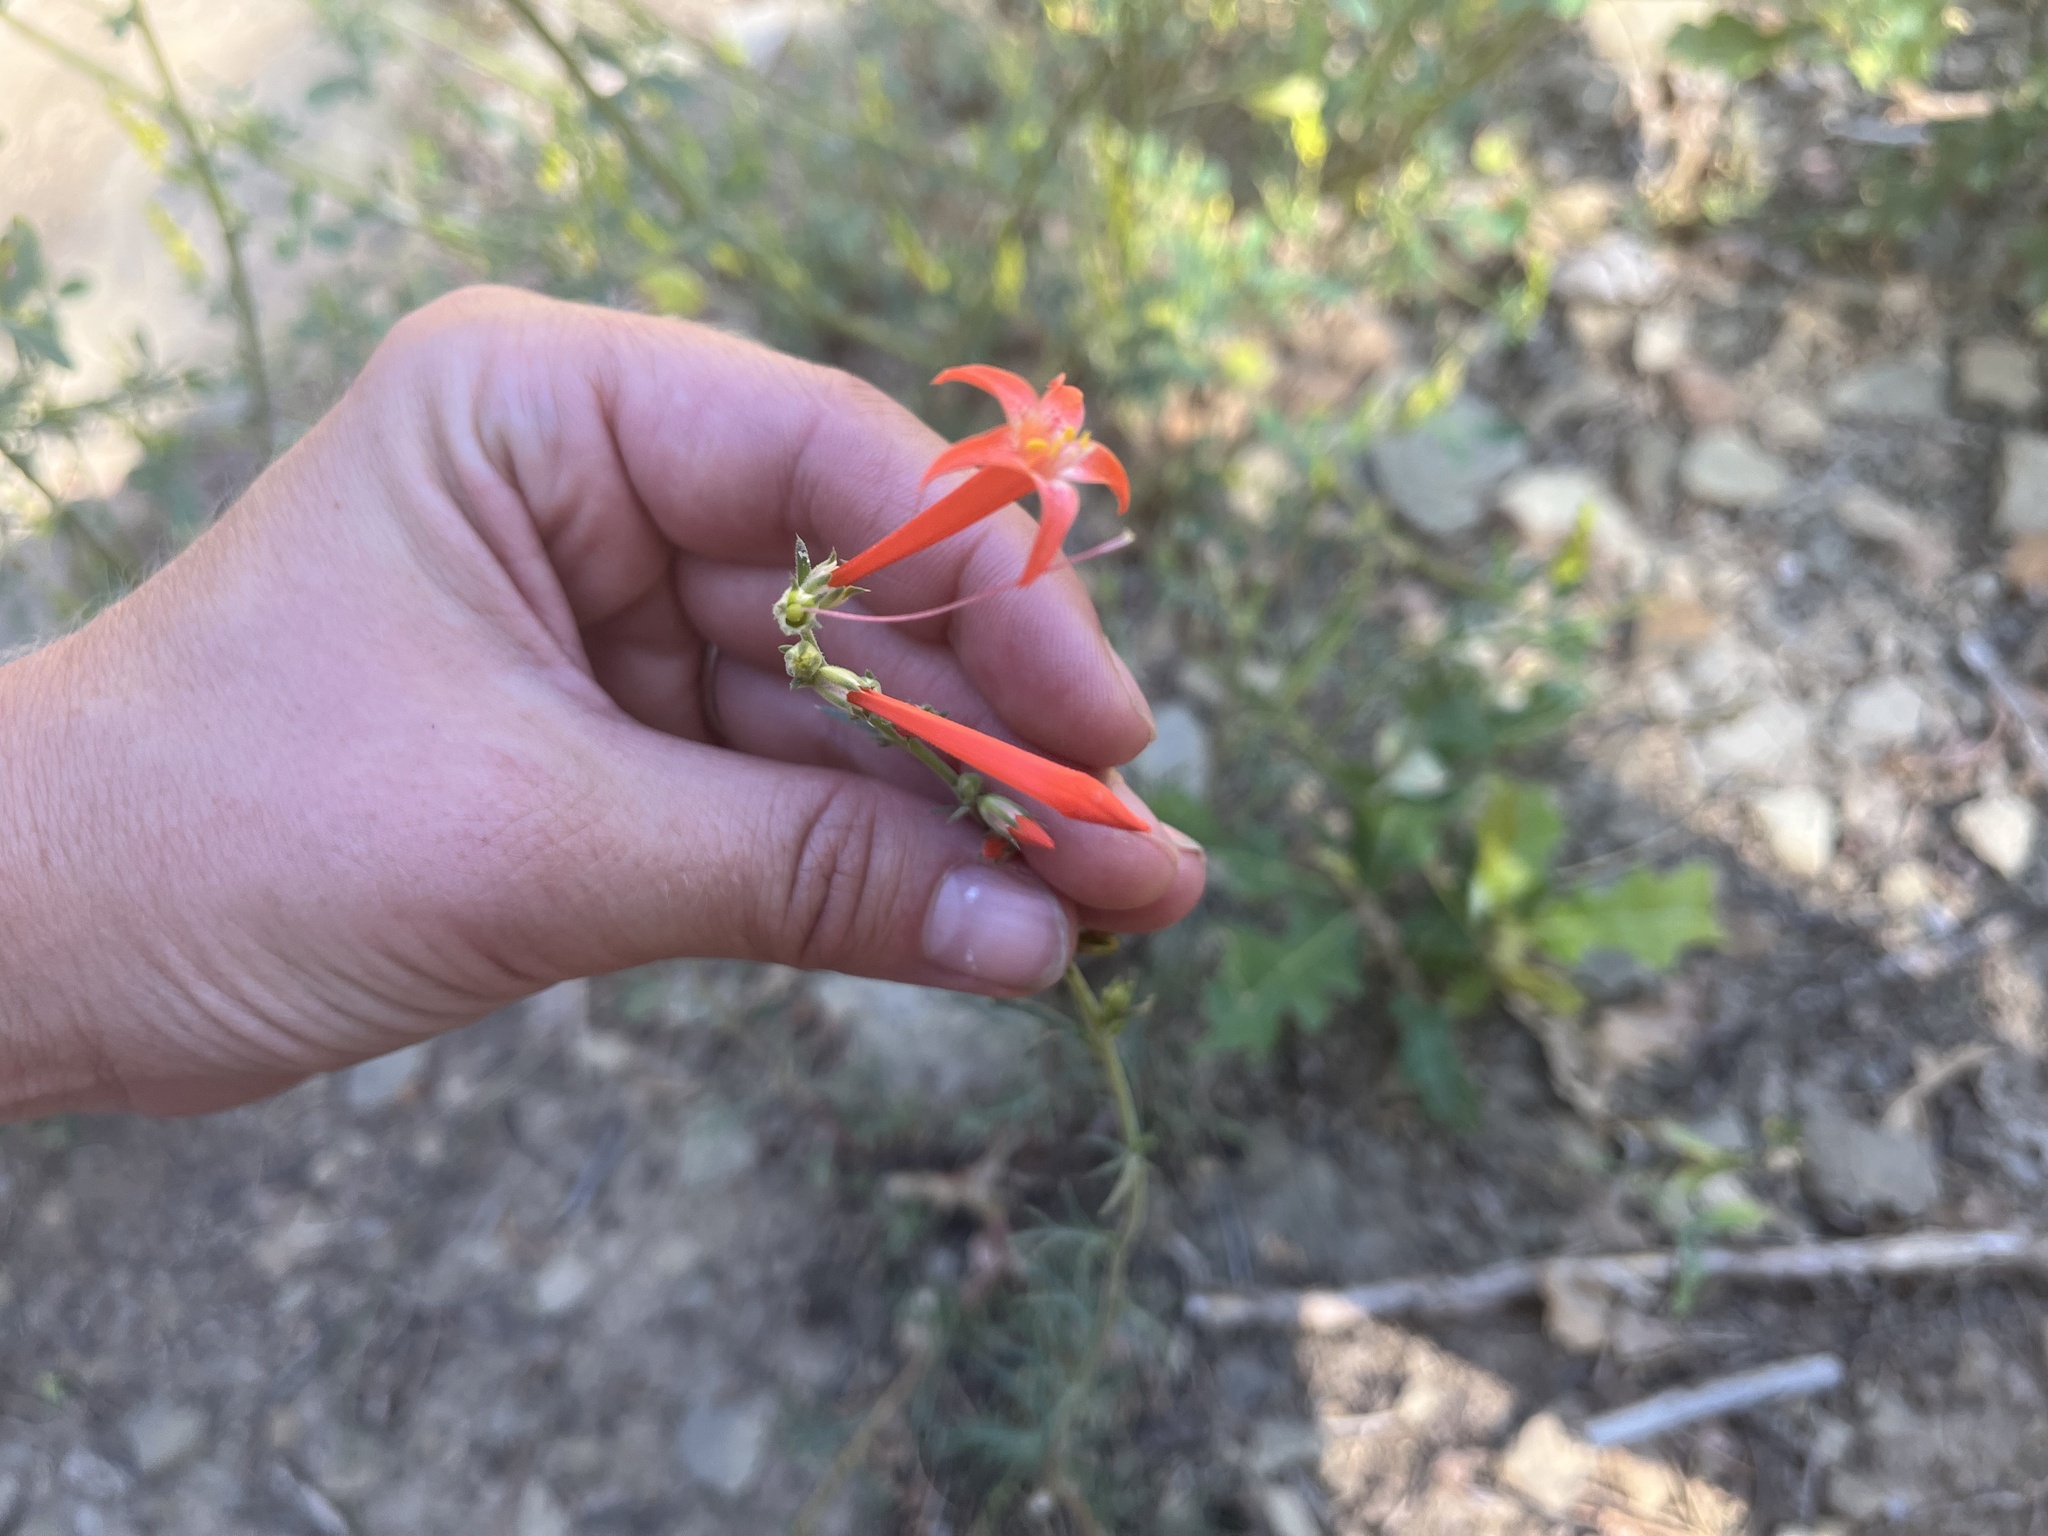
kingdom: Plantae
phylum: Tracheophyta
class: Magnoliopsida
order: Ericales
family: Polemoniaceae
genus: Ipomopsis
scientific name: Ipomopsis aggregata
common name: Scarlet gilia
